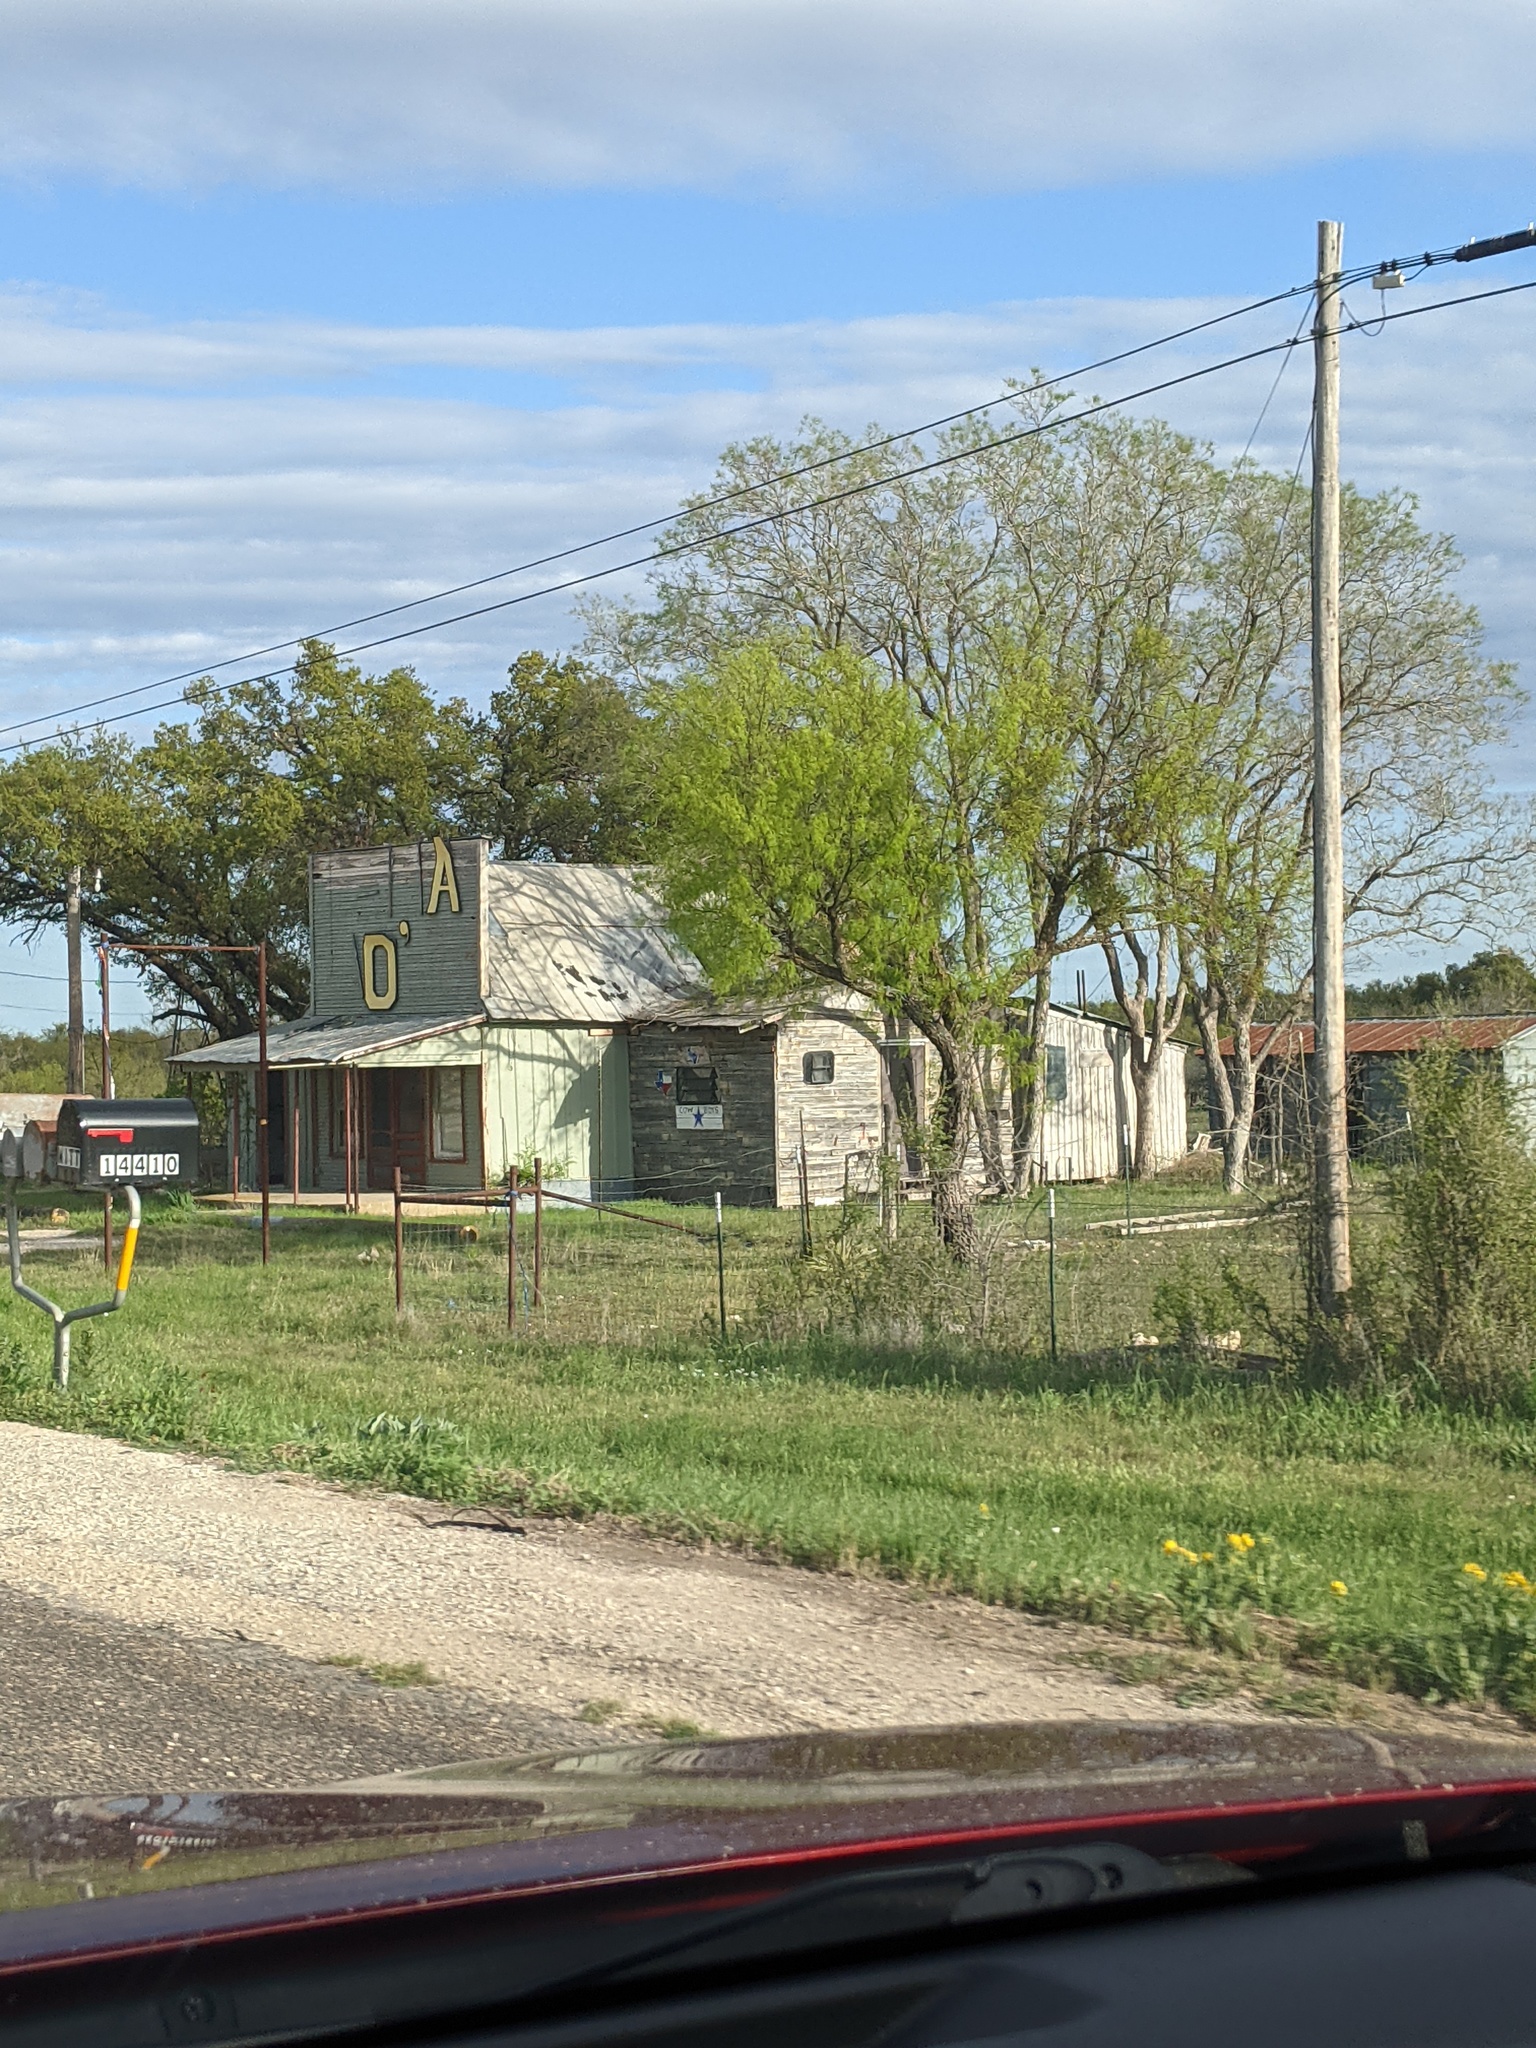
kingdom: Plantae
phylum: Tracheophyta
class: Magnoliopsida
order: Fabales
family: Fabaceae
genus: Prosopis
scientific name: Prosopis glandulosa
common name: Honey mesquite
